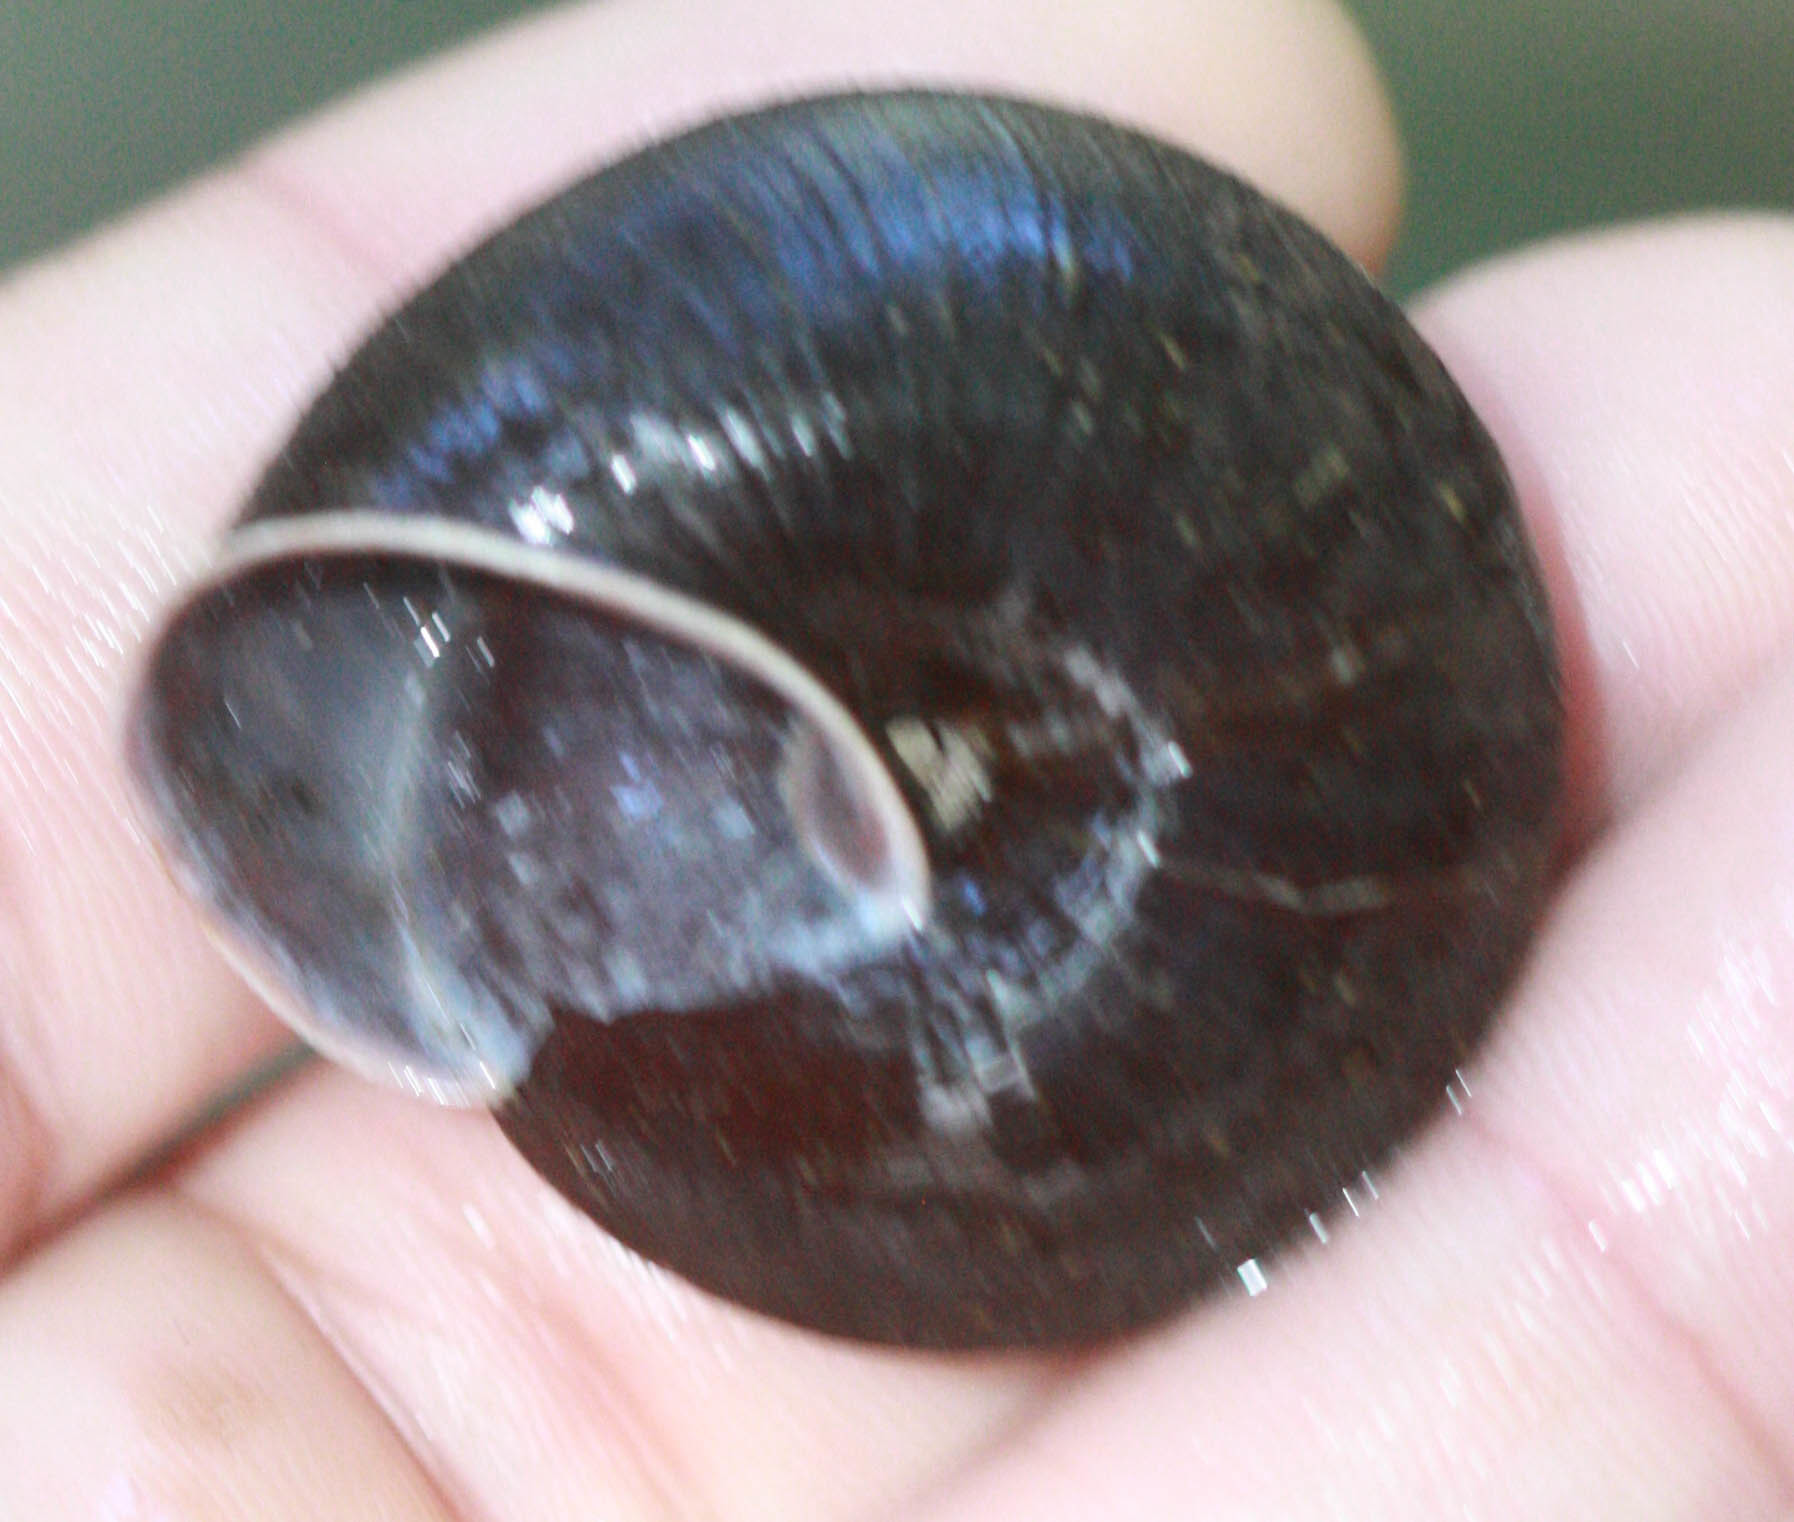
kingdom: Animalia
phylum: Mollusca
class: Gastropoda
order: Stylommatophora
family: Xanthonychidae
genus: Monadenia
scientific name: Monadenia infumata
